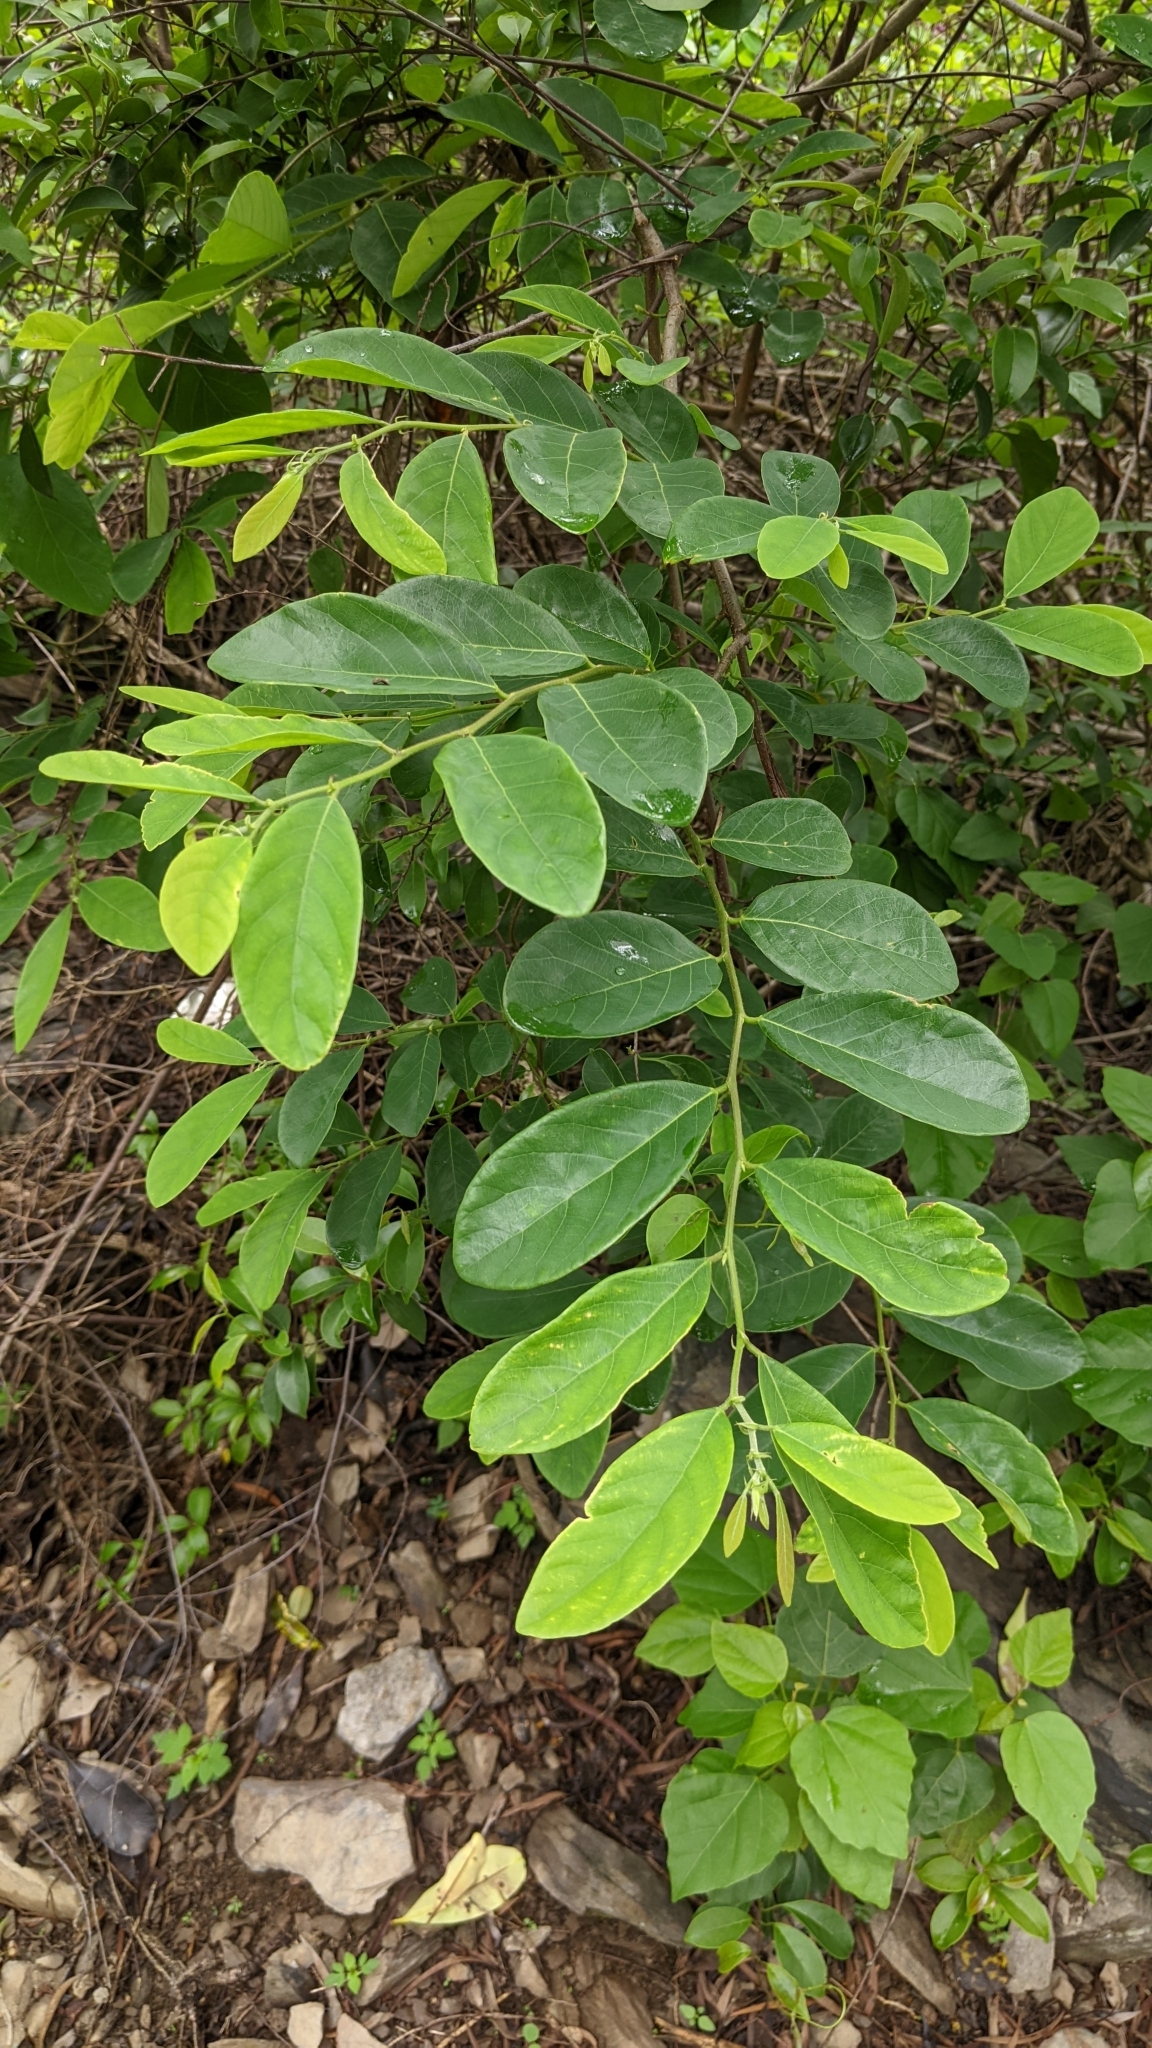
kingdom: Plantae
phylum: Tracheophyta
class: Magnoliopsida
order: Malpighiales
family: Phyllanthaceae
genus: Bridelia
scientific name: Bridelia tomentosa
